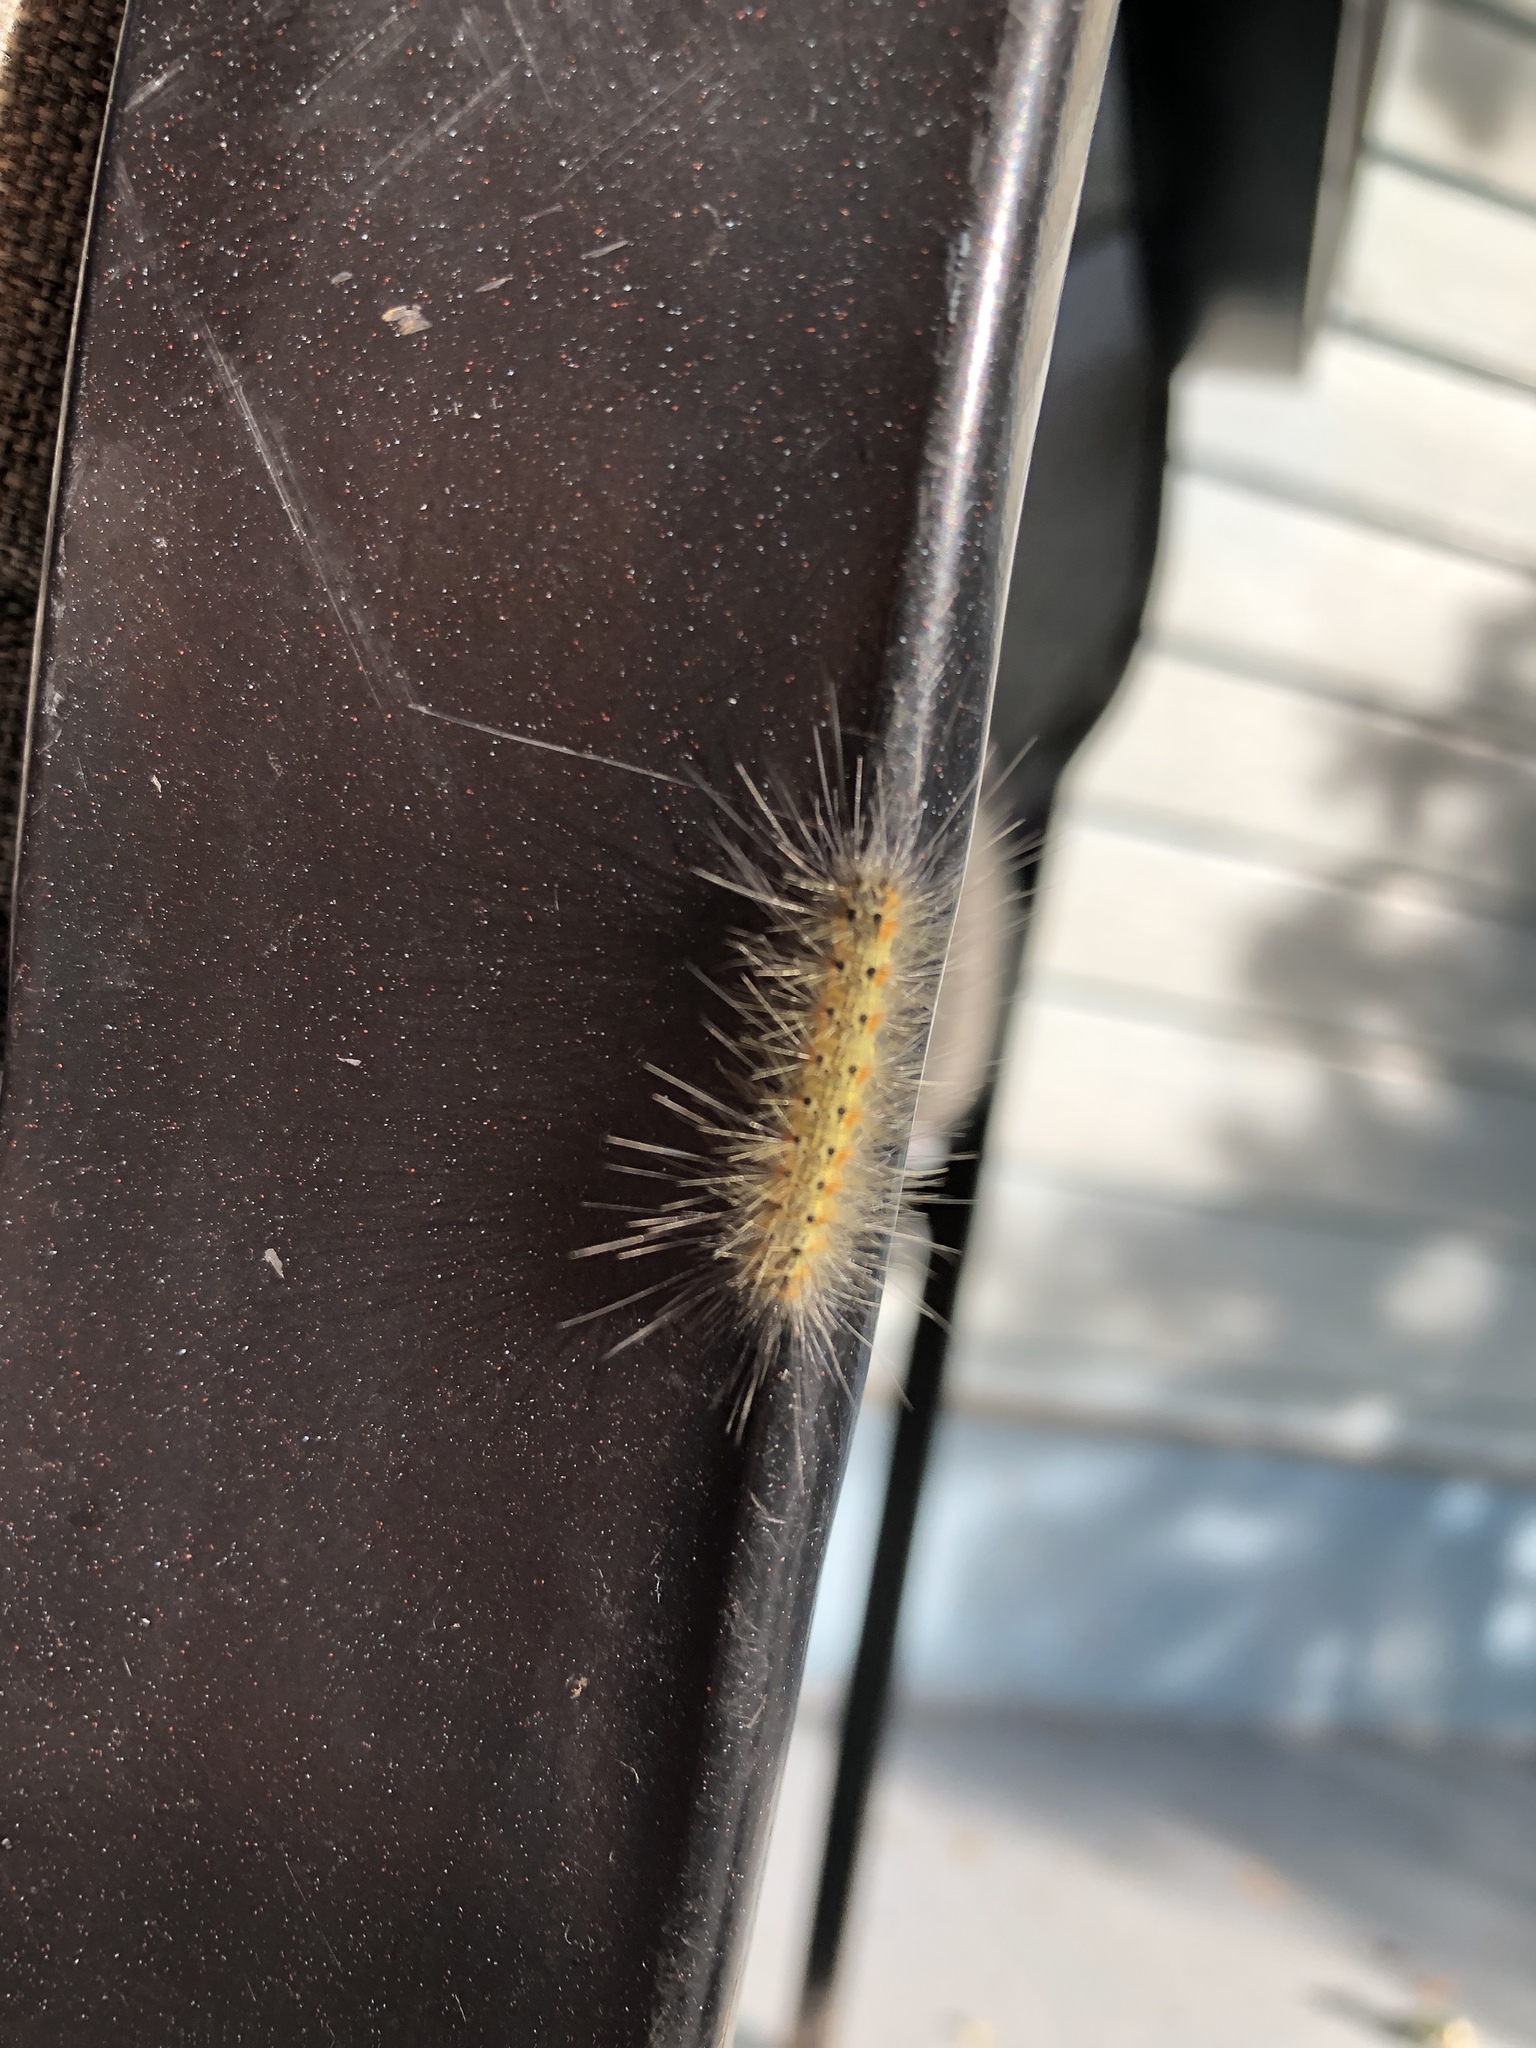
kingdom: Animalia
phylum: Arthropoda
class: Insecta
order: Lepidoptera
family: Erebidae
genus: Hyphantria
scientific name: Hyphantria cunea
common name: American white moth
